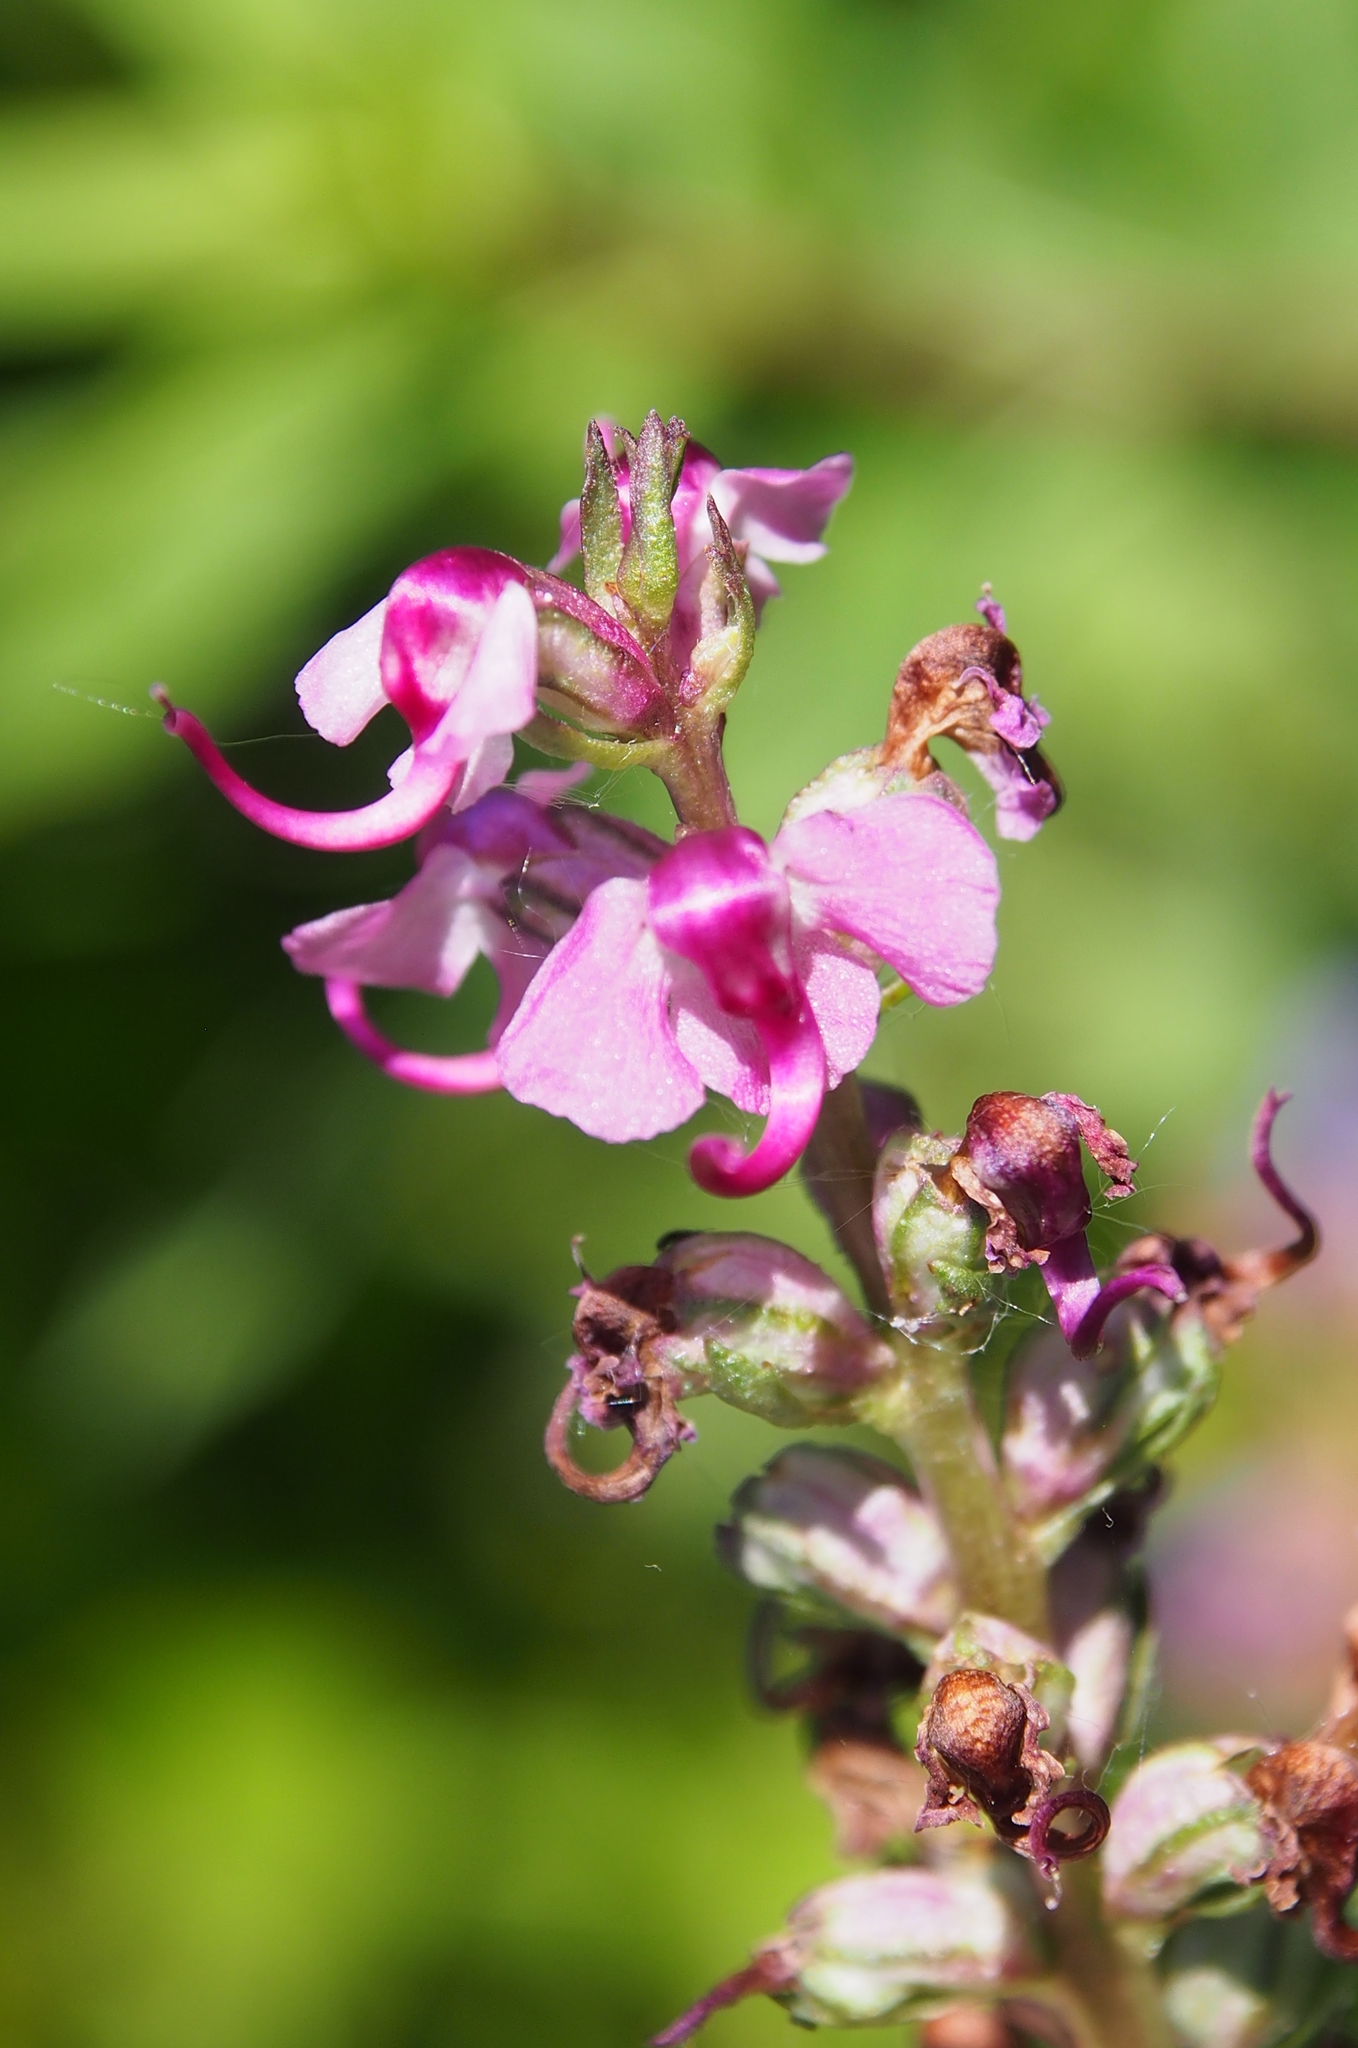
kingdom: Plantae
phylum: Tracheophyta
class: Magnoliopsida
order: Lamiales
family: Orobanchaceae
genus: Pedicularis
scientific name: Pedicularis groenlandica
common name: Elephant's-head
